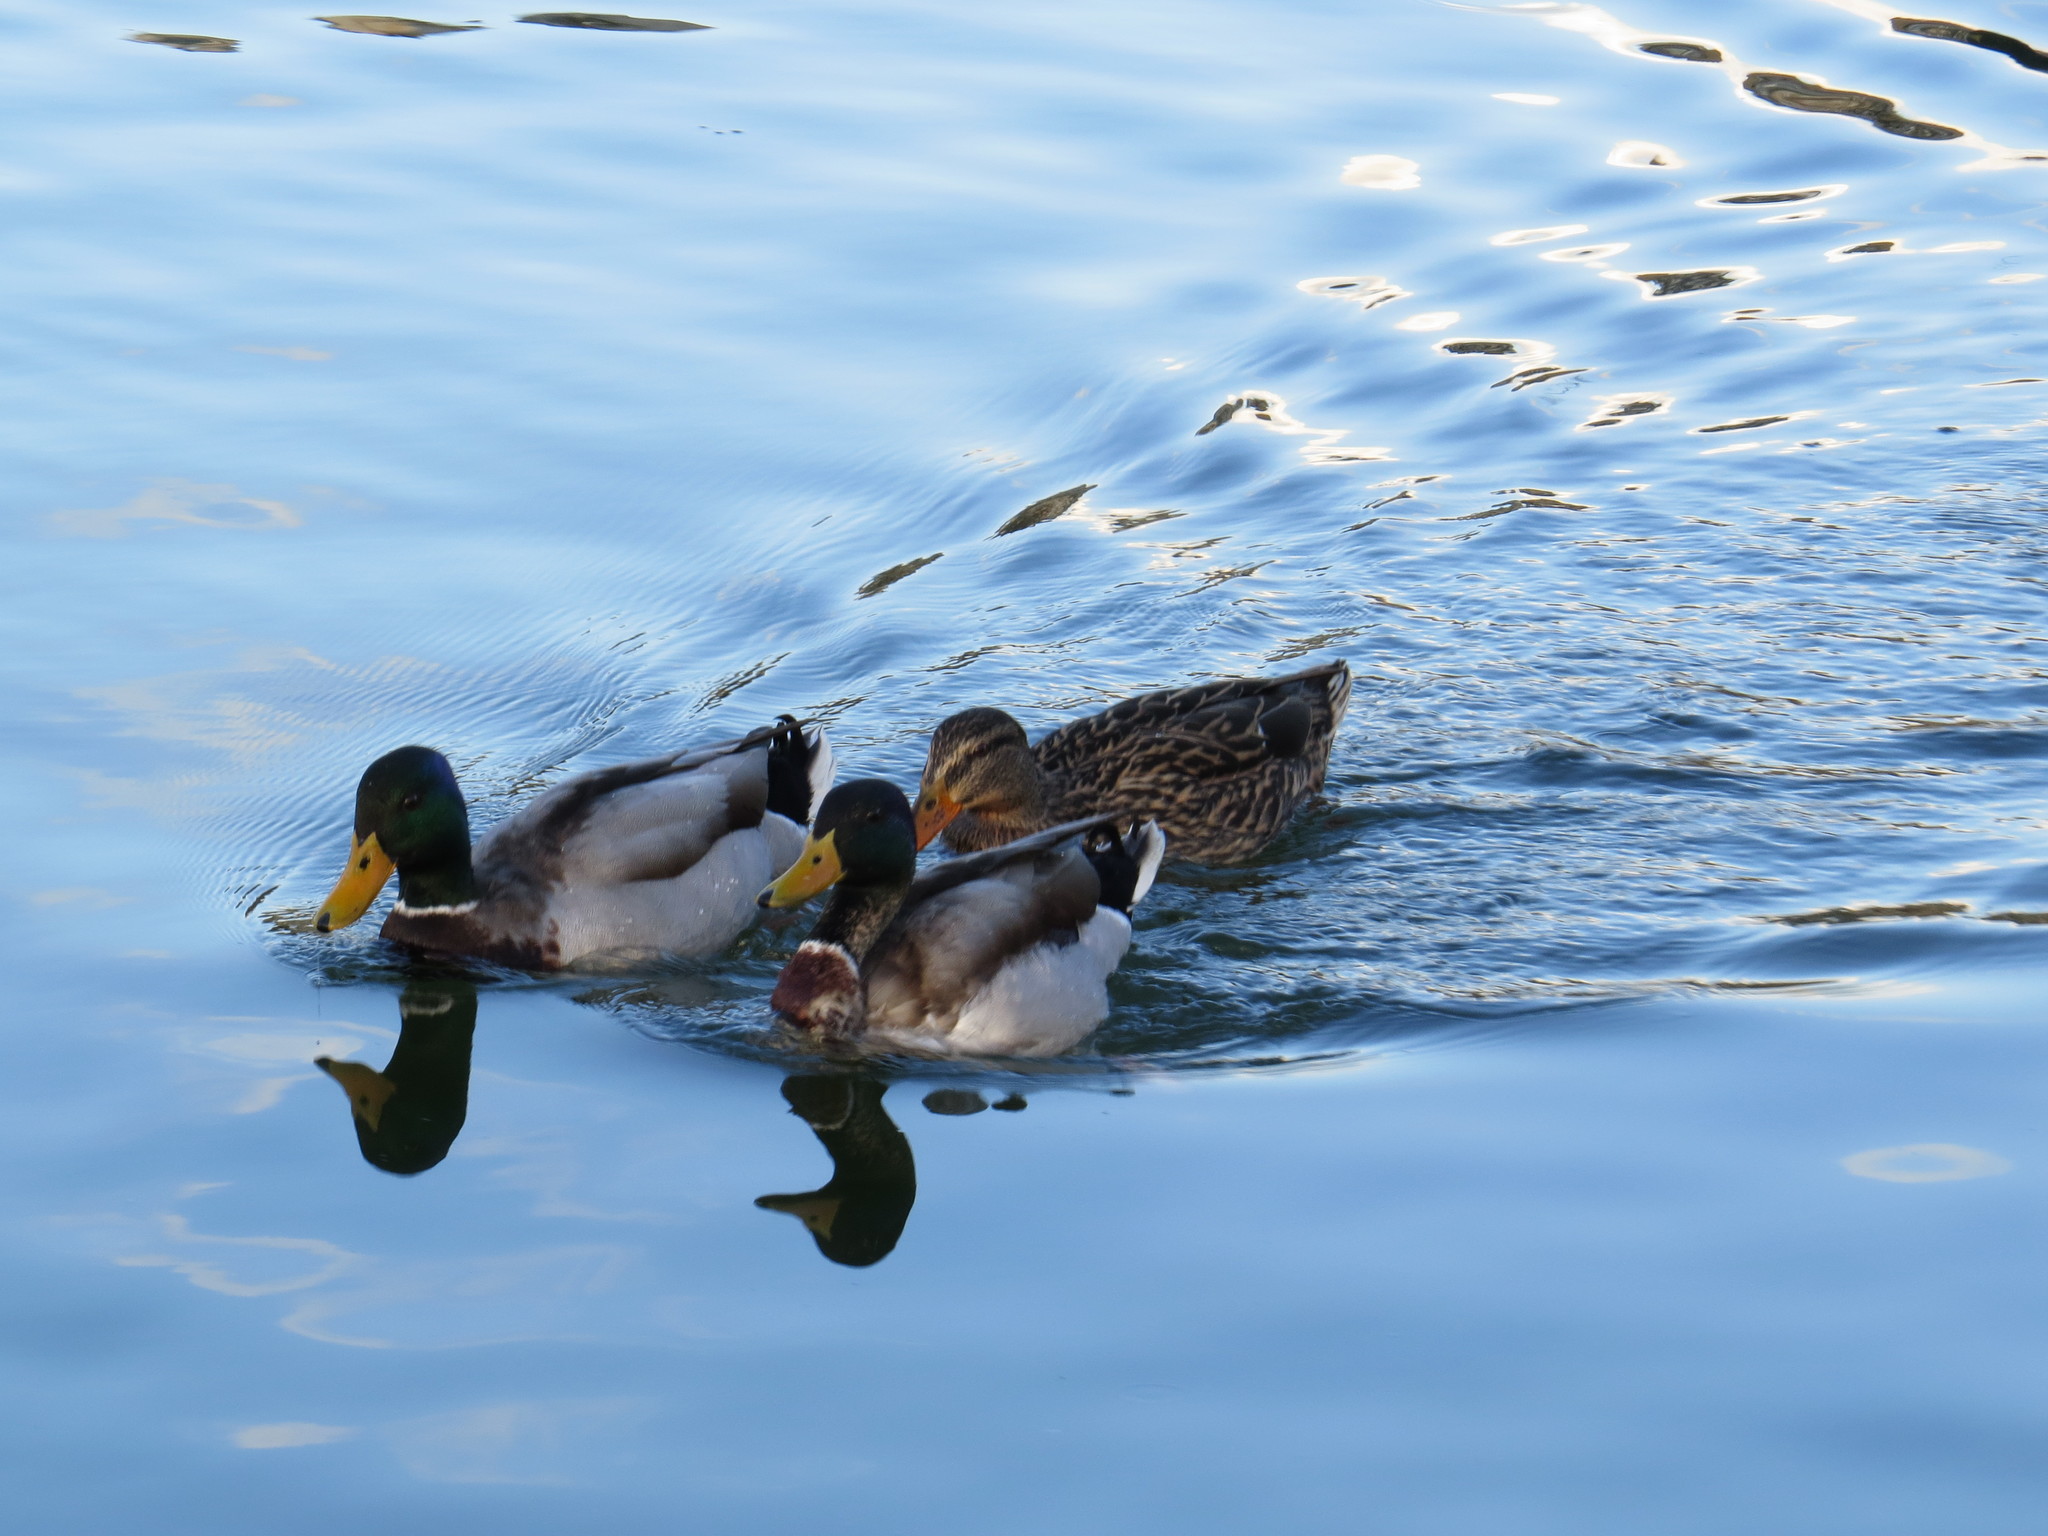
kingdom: Animalia
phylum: Chordata
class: Aves
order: Anseriformes
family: Anatidae
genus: Anas
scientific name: Anas platyrhynchos
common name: Mallard
